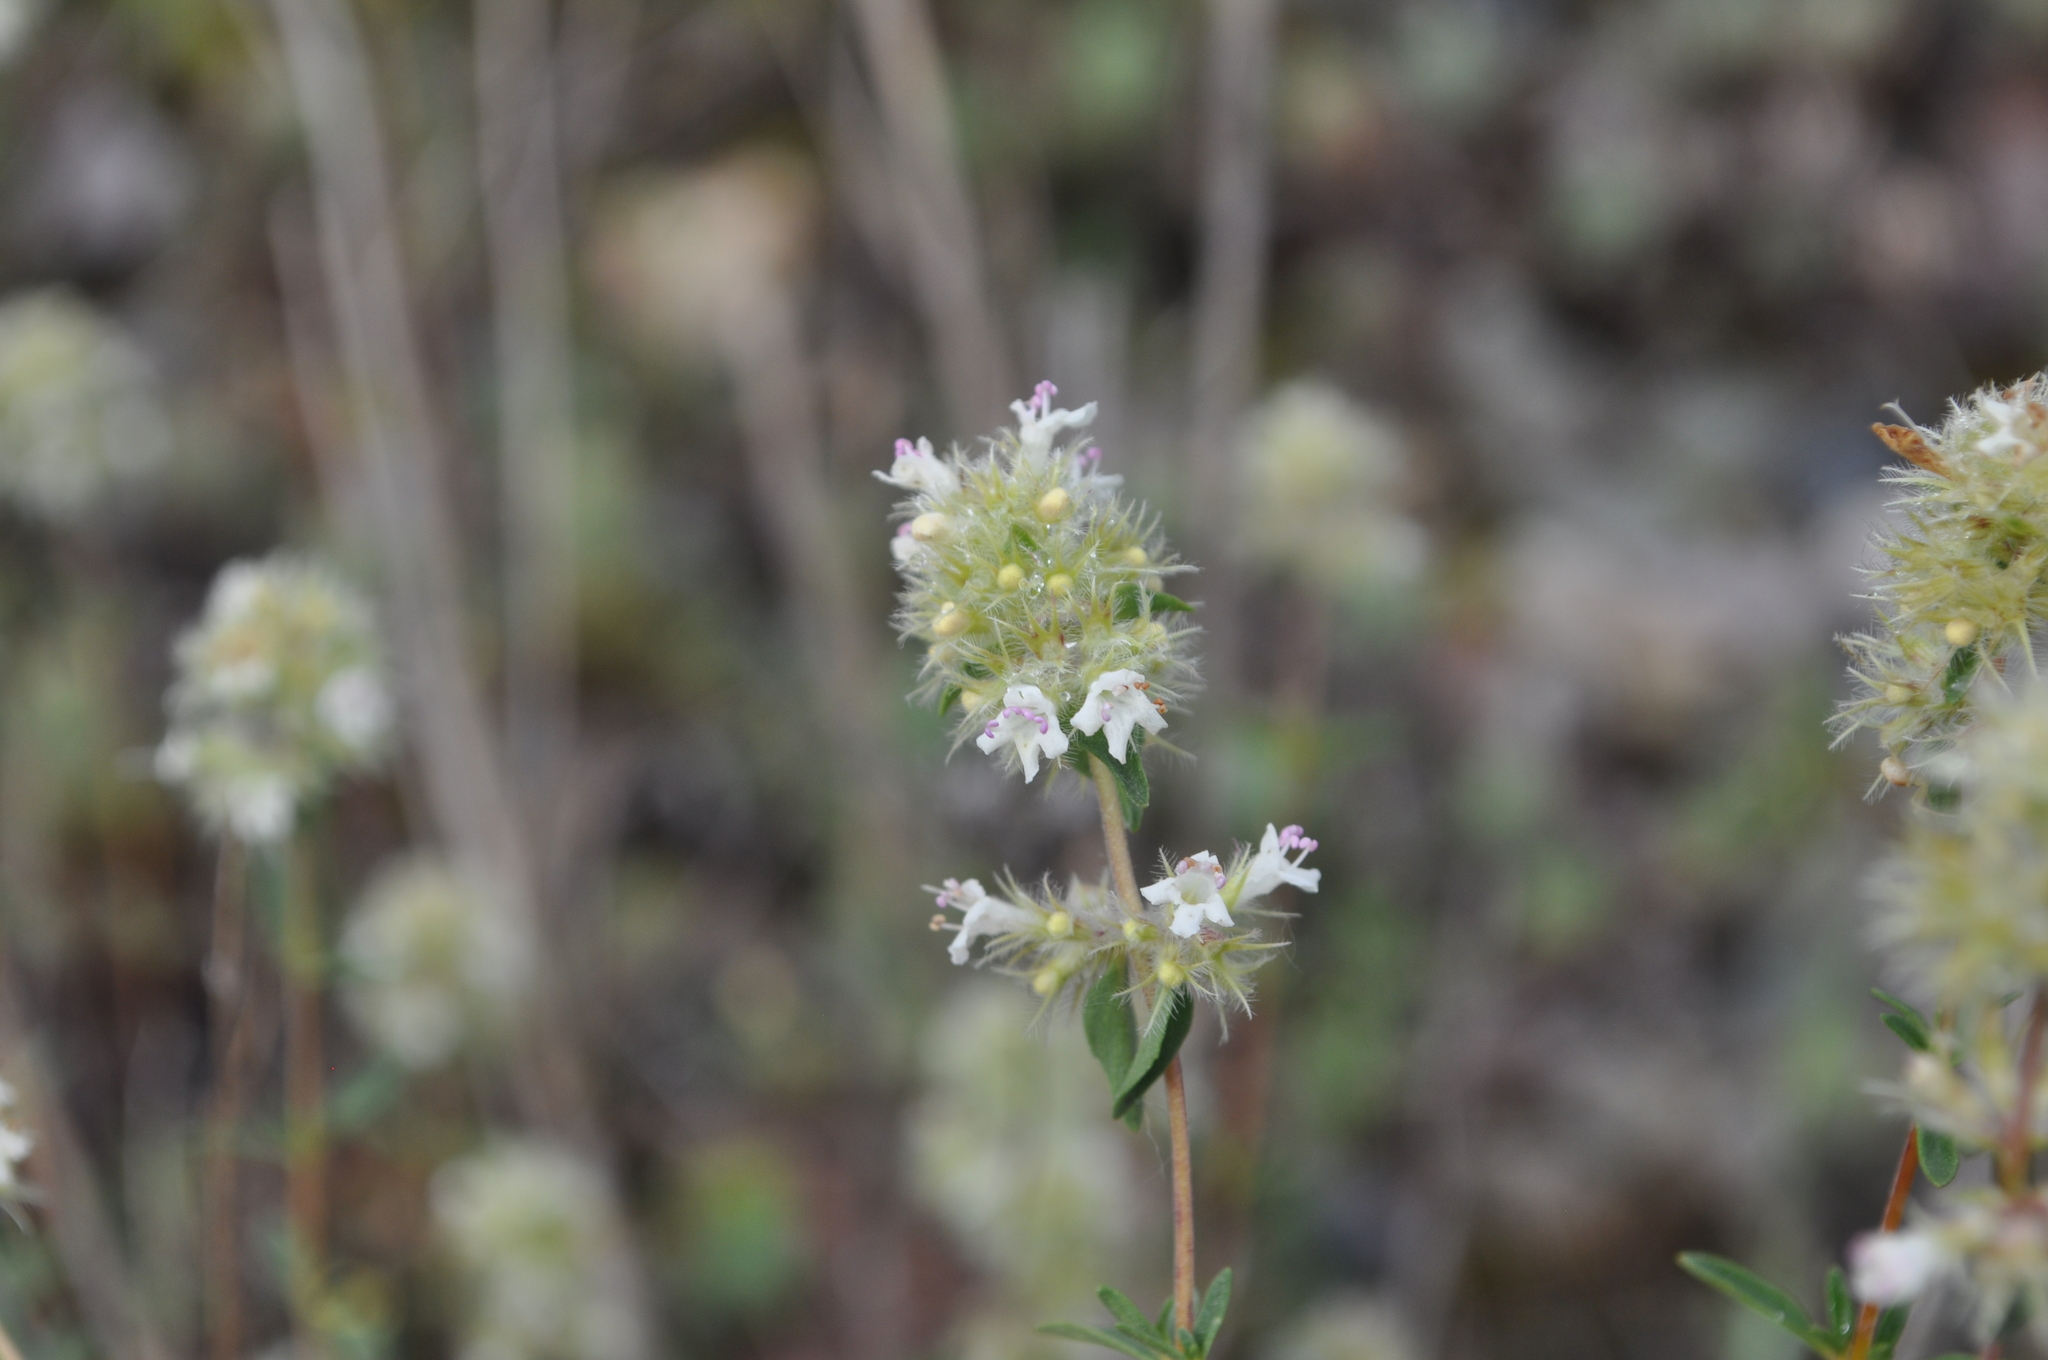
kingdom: Plantae
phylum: Tracheophyta
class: Magnoliopsida
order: Lamiales
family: Lamiaceae
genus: Thymus
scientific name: Thymus mastichina
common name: Mastic thyme
